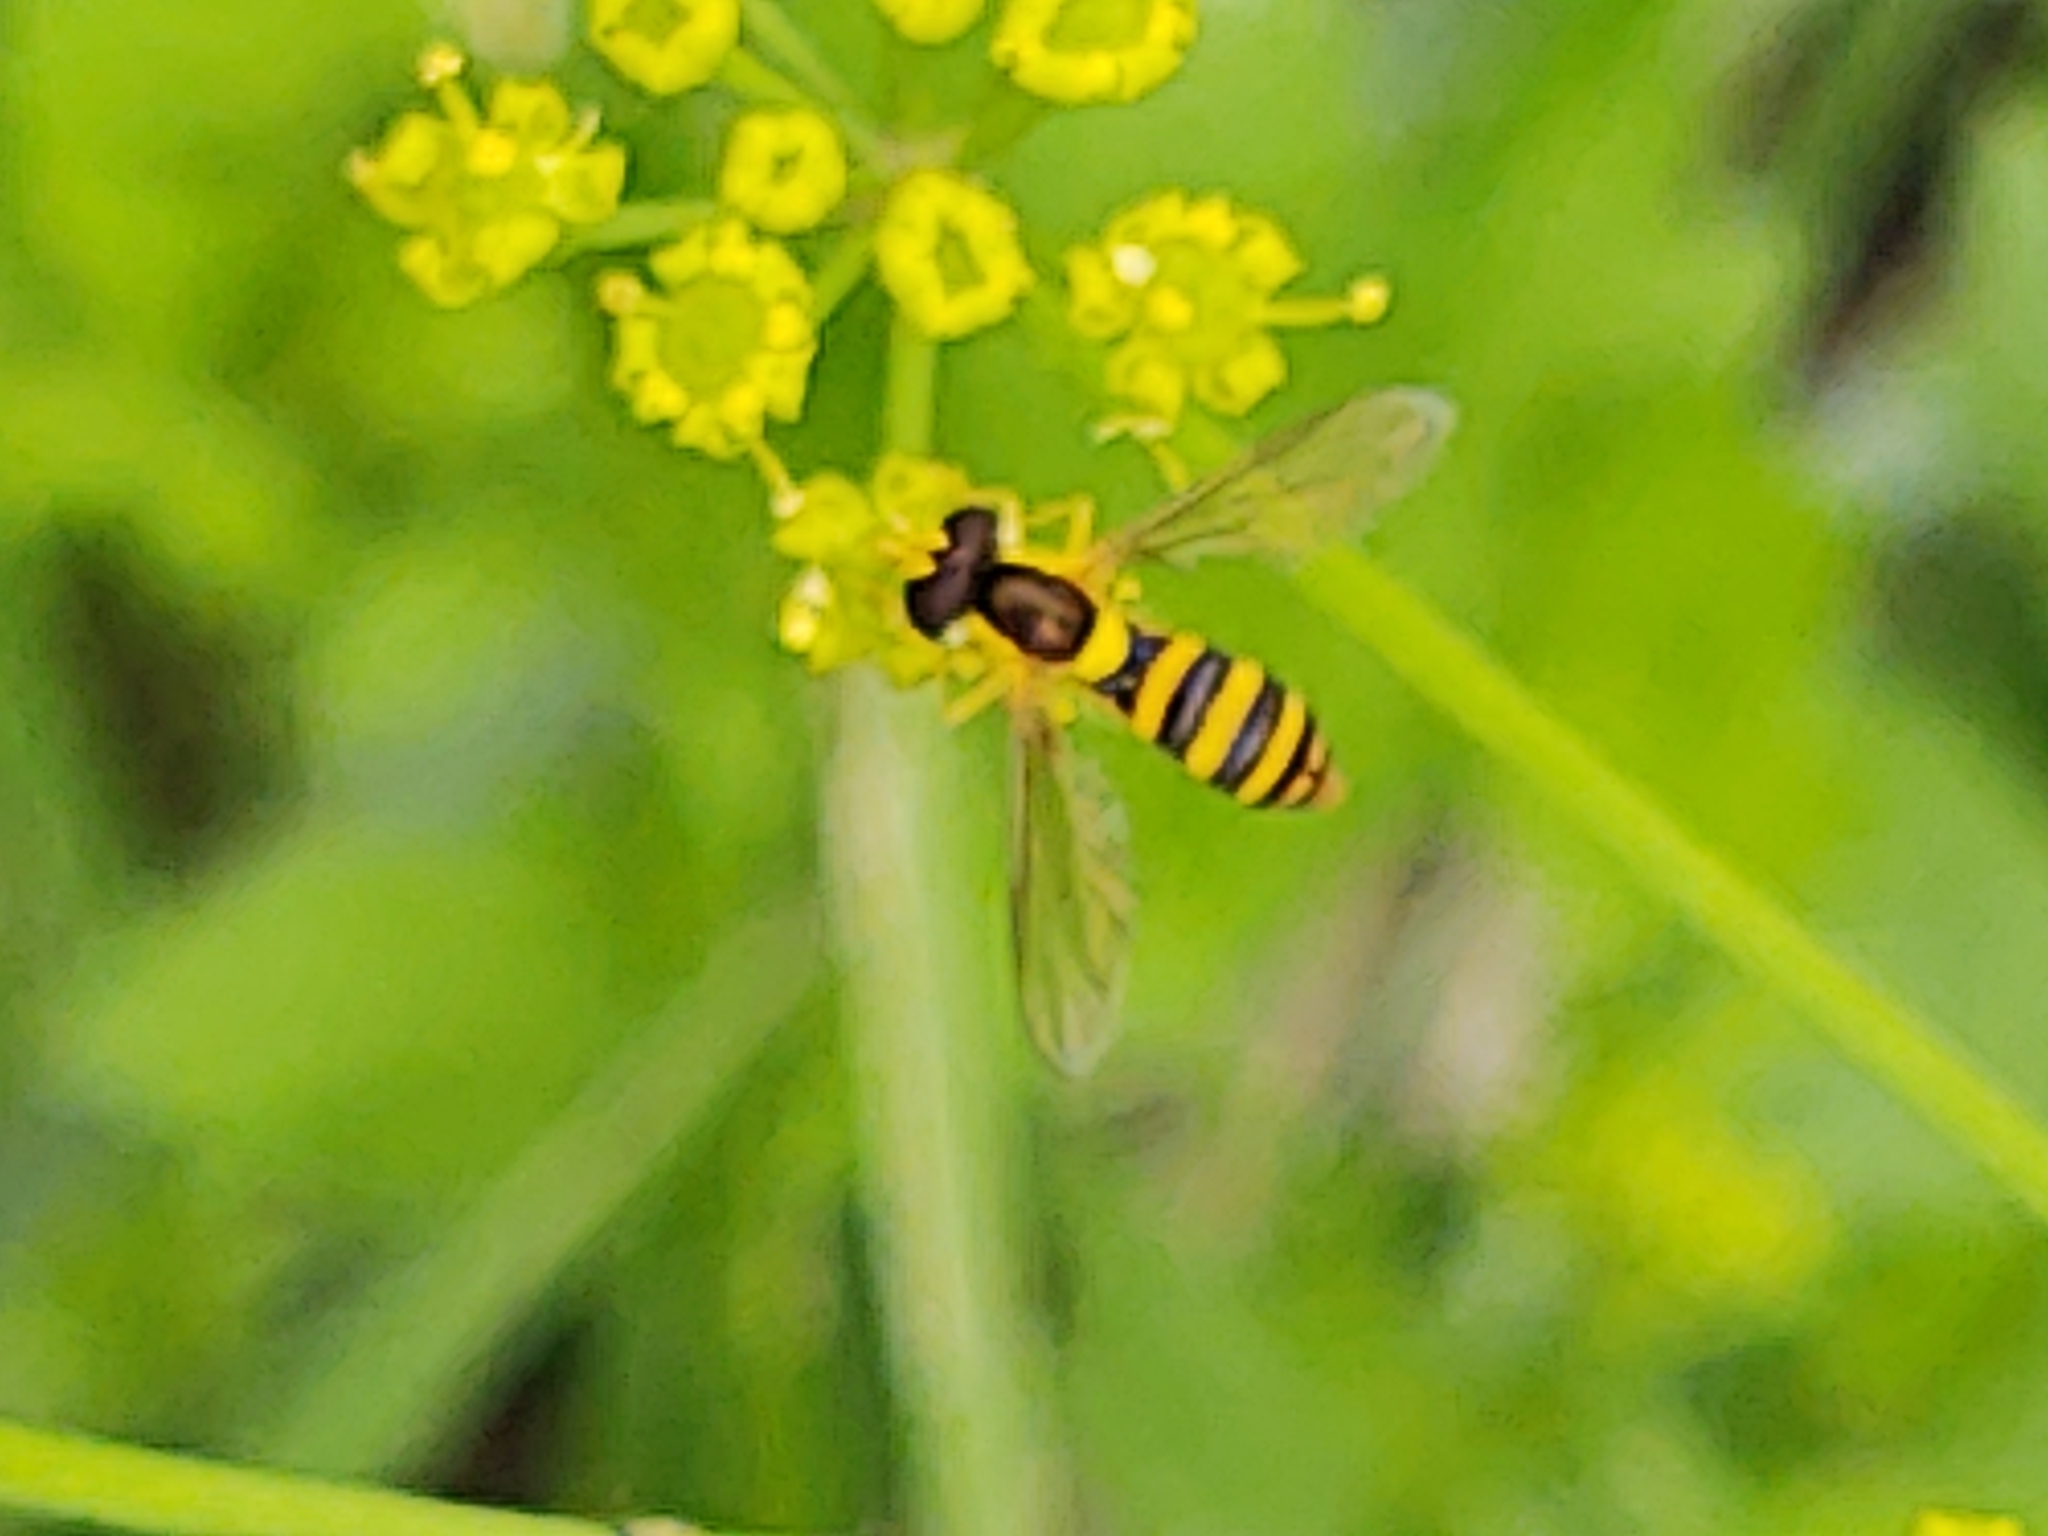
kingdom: Animalia
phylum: Arthropoda
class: Insecta
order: Diptera
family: Syrphidae
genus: Sphaerophoria
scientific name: Sphaerophoria
